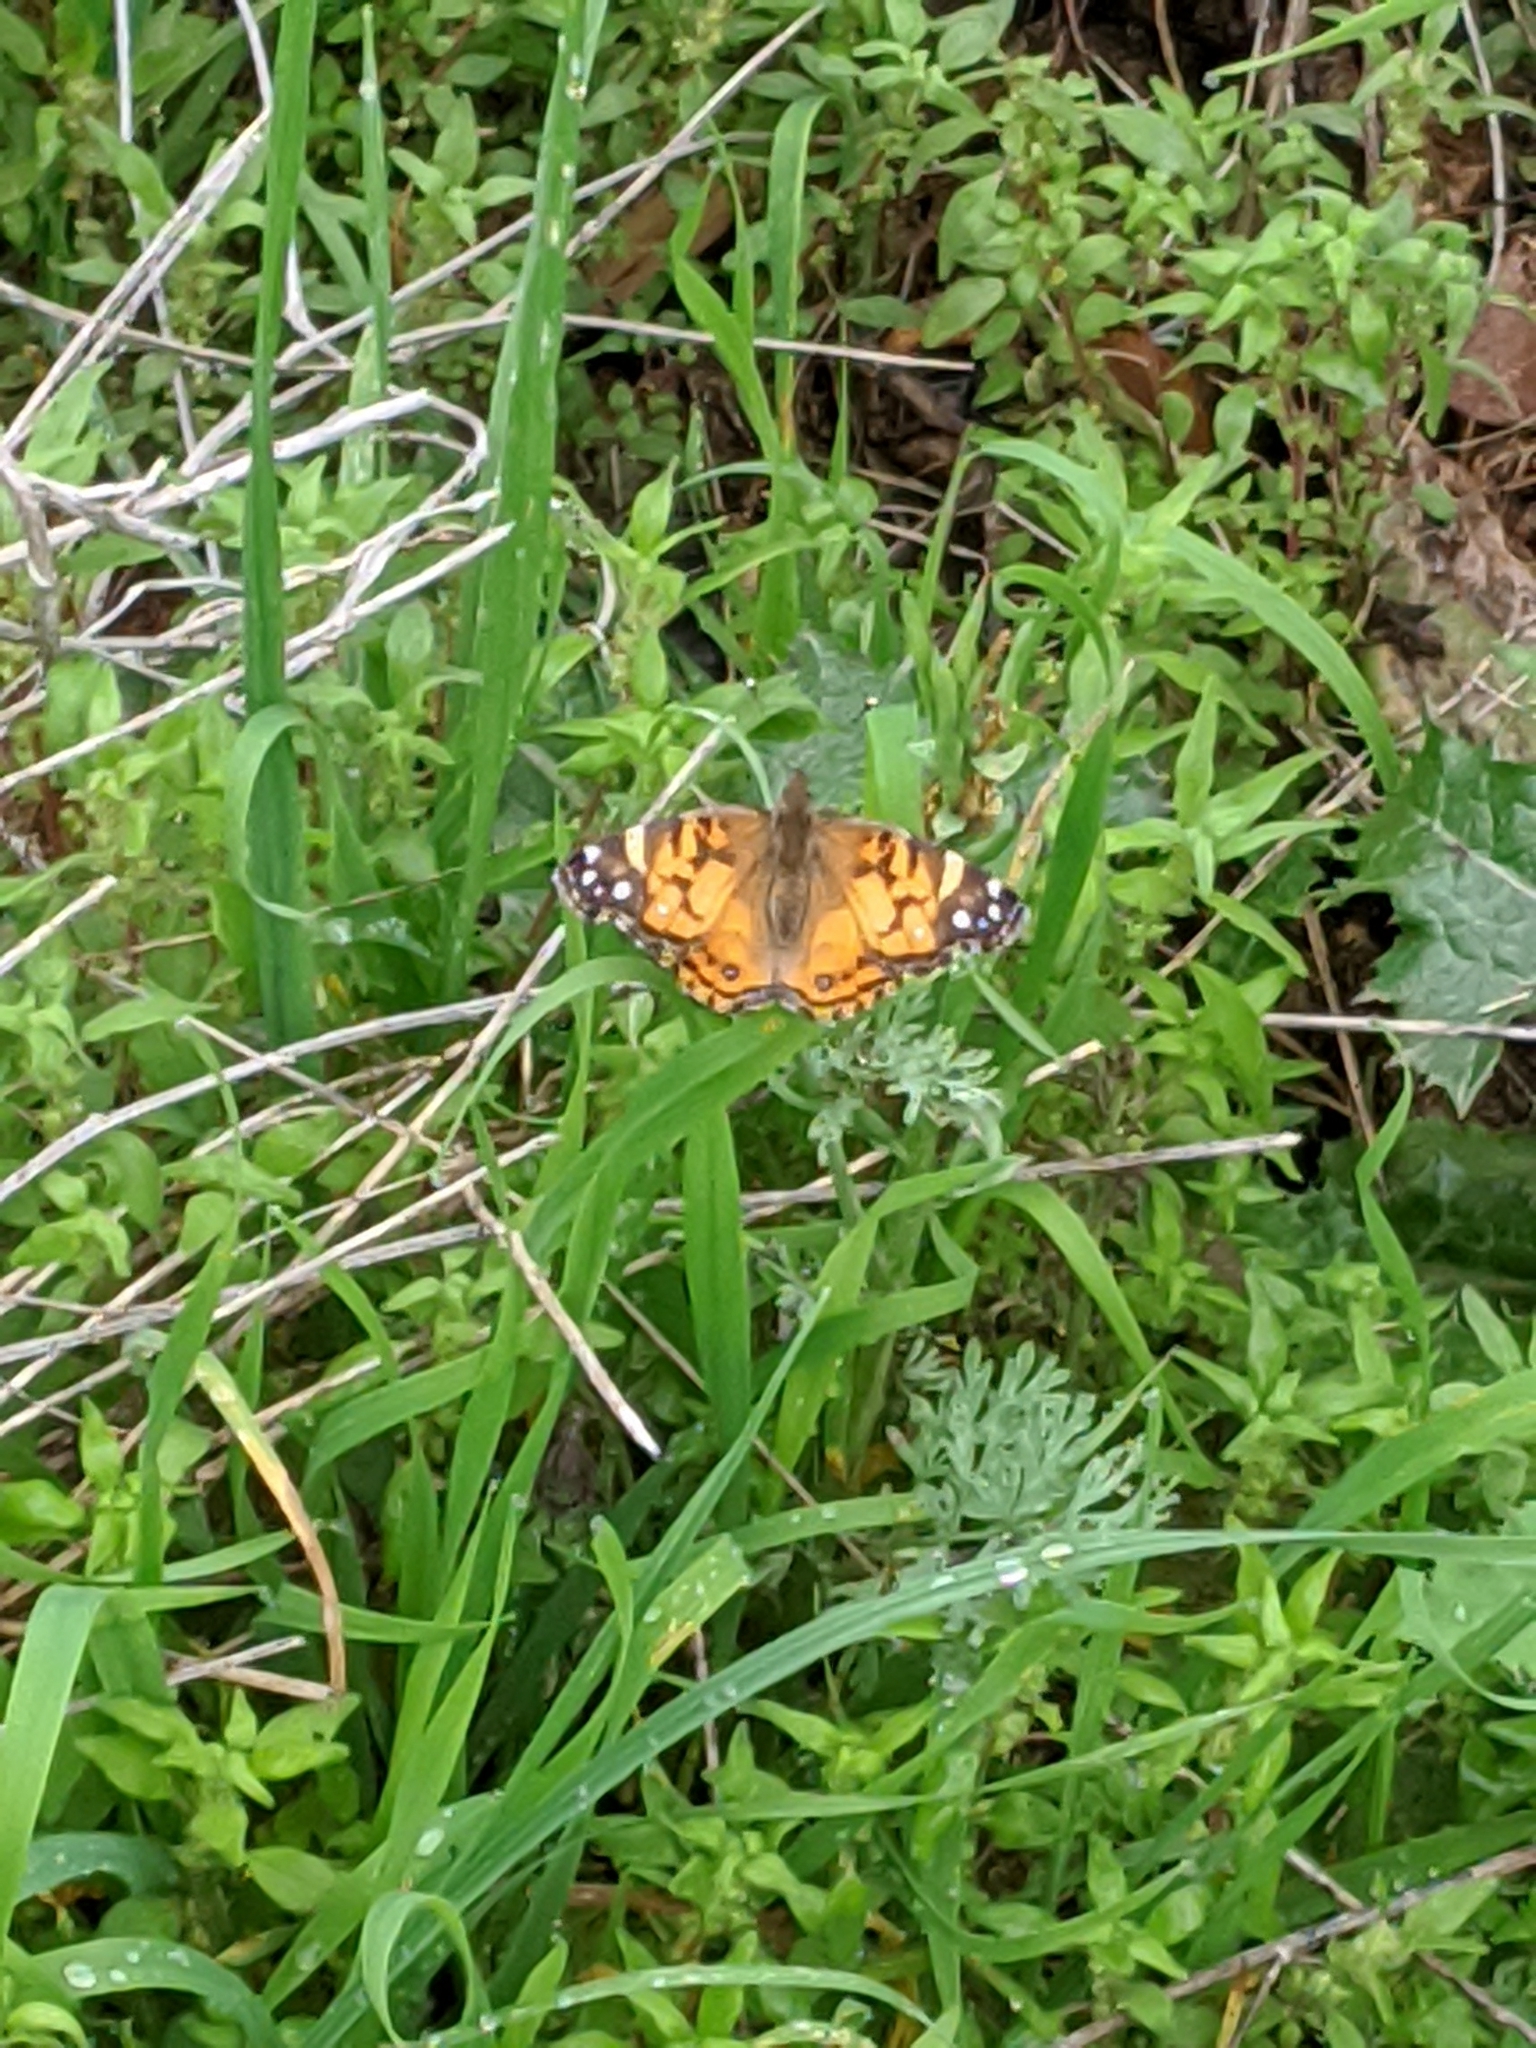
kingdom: Animalia
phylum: Arthropoda
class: Insecta
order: Lepidoptera
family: Nymphalidae
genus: Vanessa
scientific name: Vanessa virginiensis
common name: American lady
